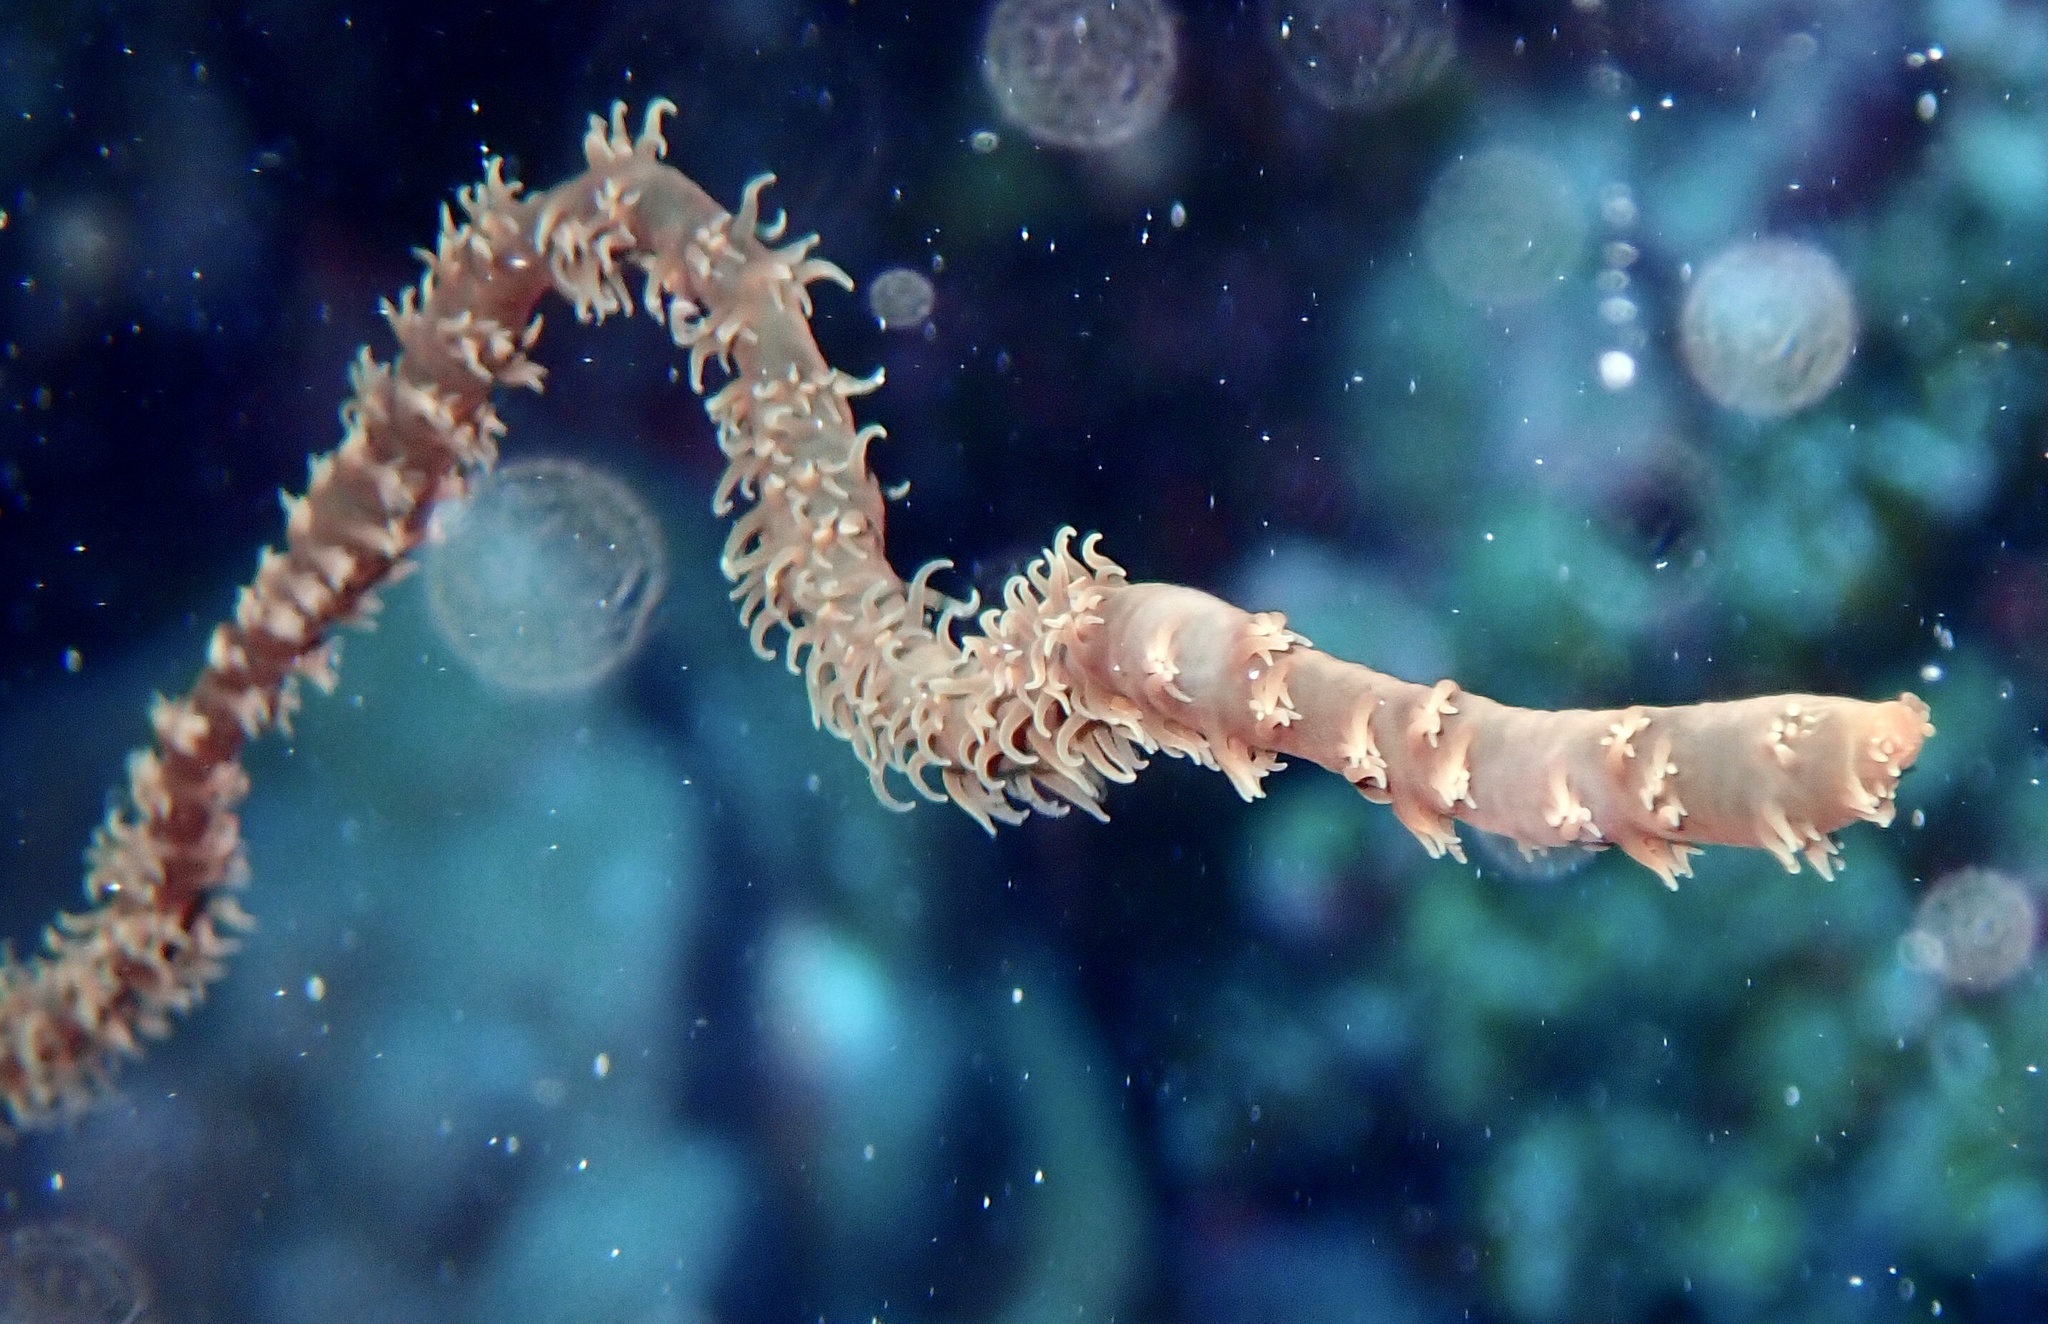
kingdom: Animalia
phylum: Cnidaria
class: Anthozoa
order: Antipatharia
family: Antipathidae
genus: Cirrhipathes
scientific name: Cirrhipathes
